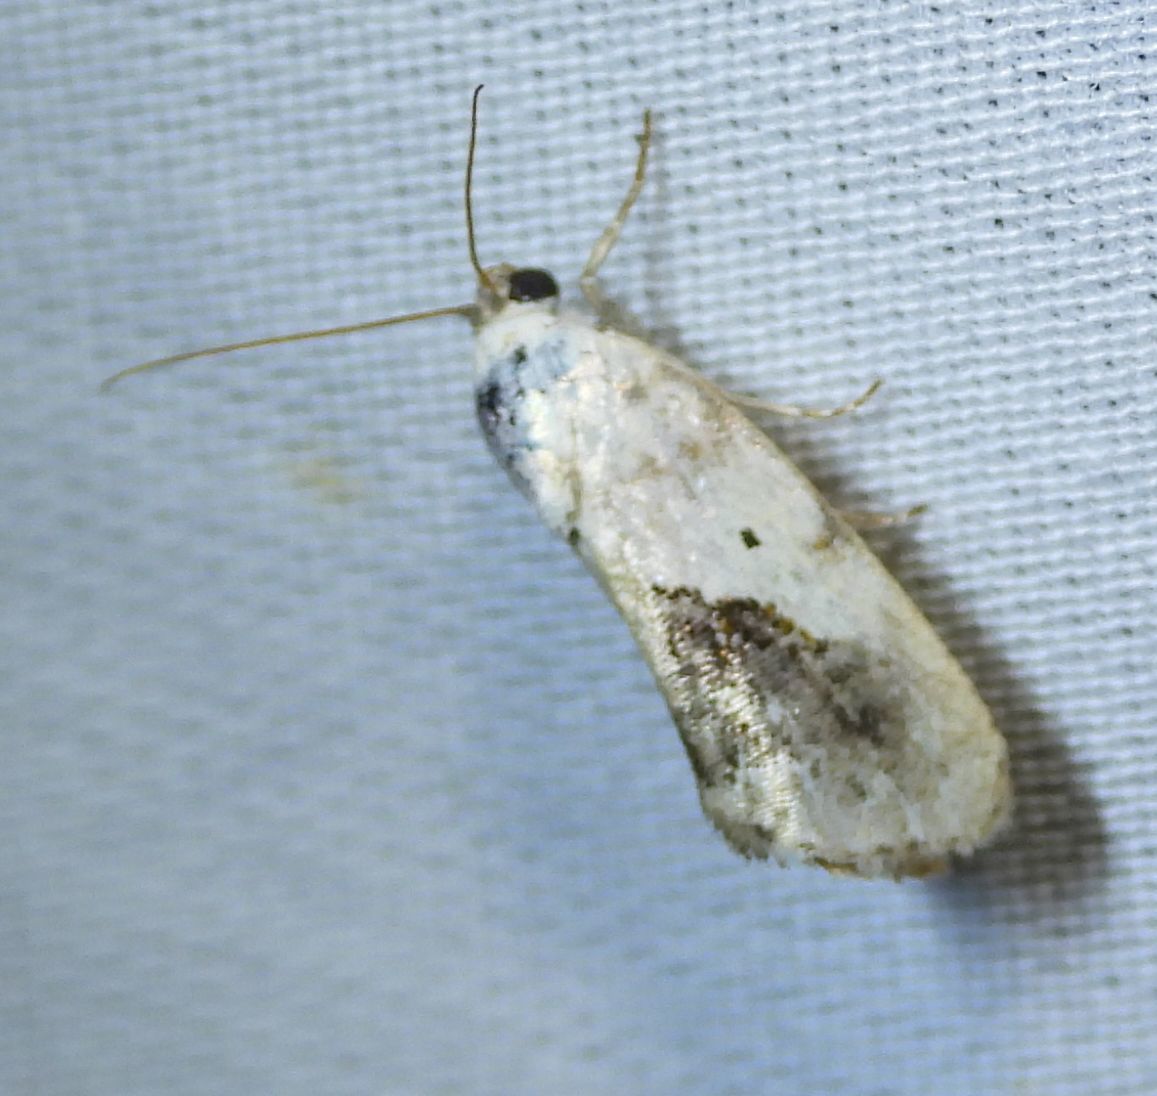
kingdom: Animalia
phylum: Arthropoda
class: Insecta
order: Lepidoptera
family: Noctuidae
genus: Acontia
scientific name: Acontia erastrioides
